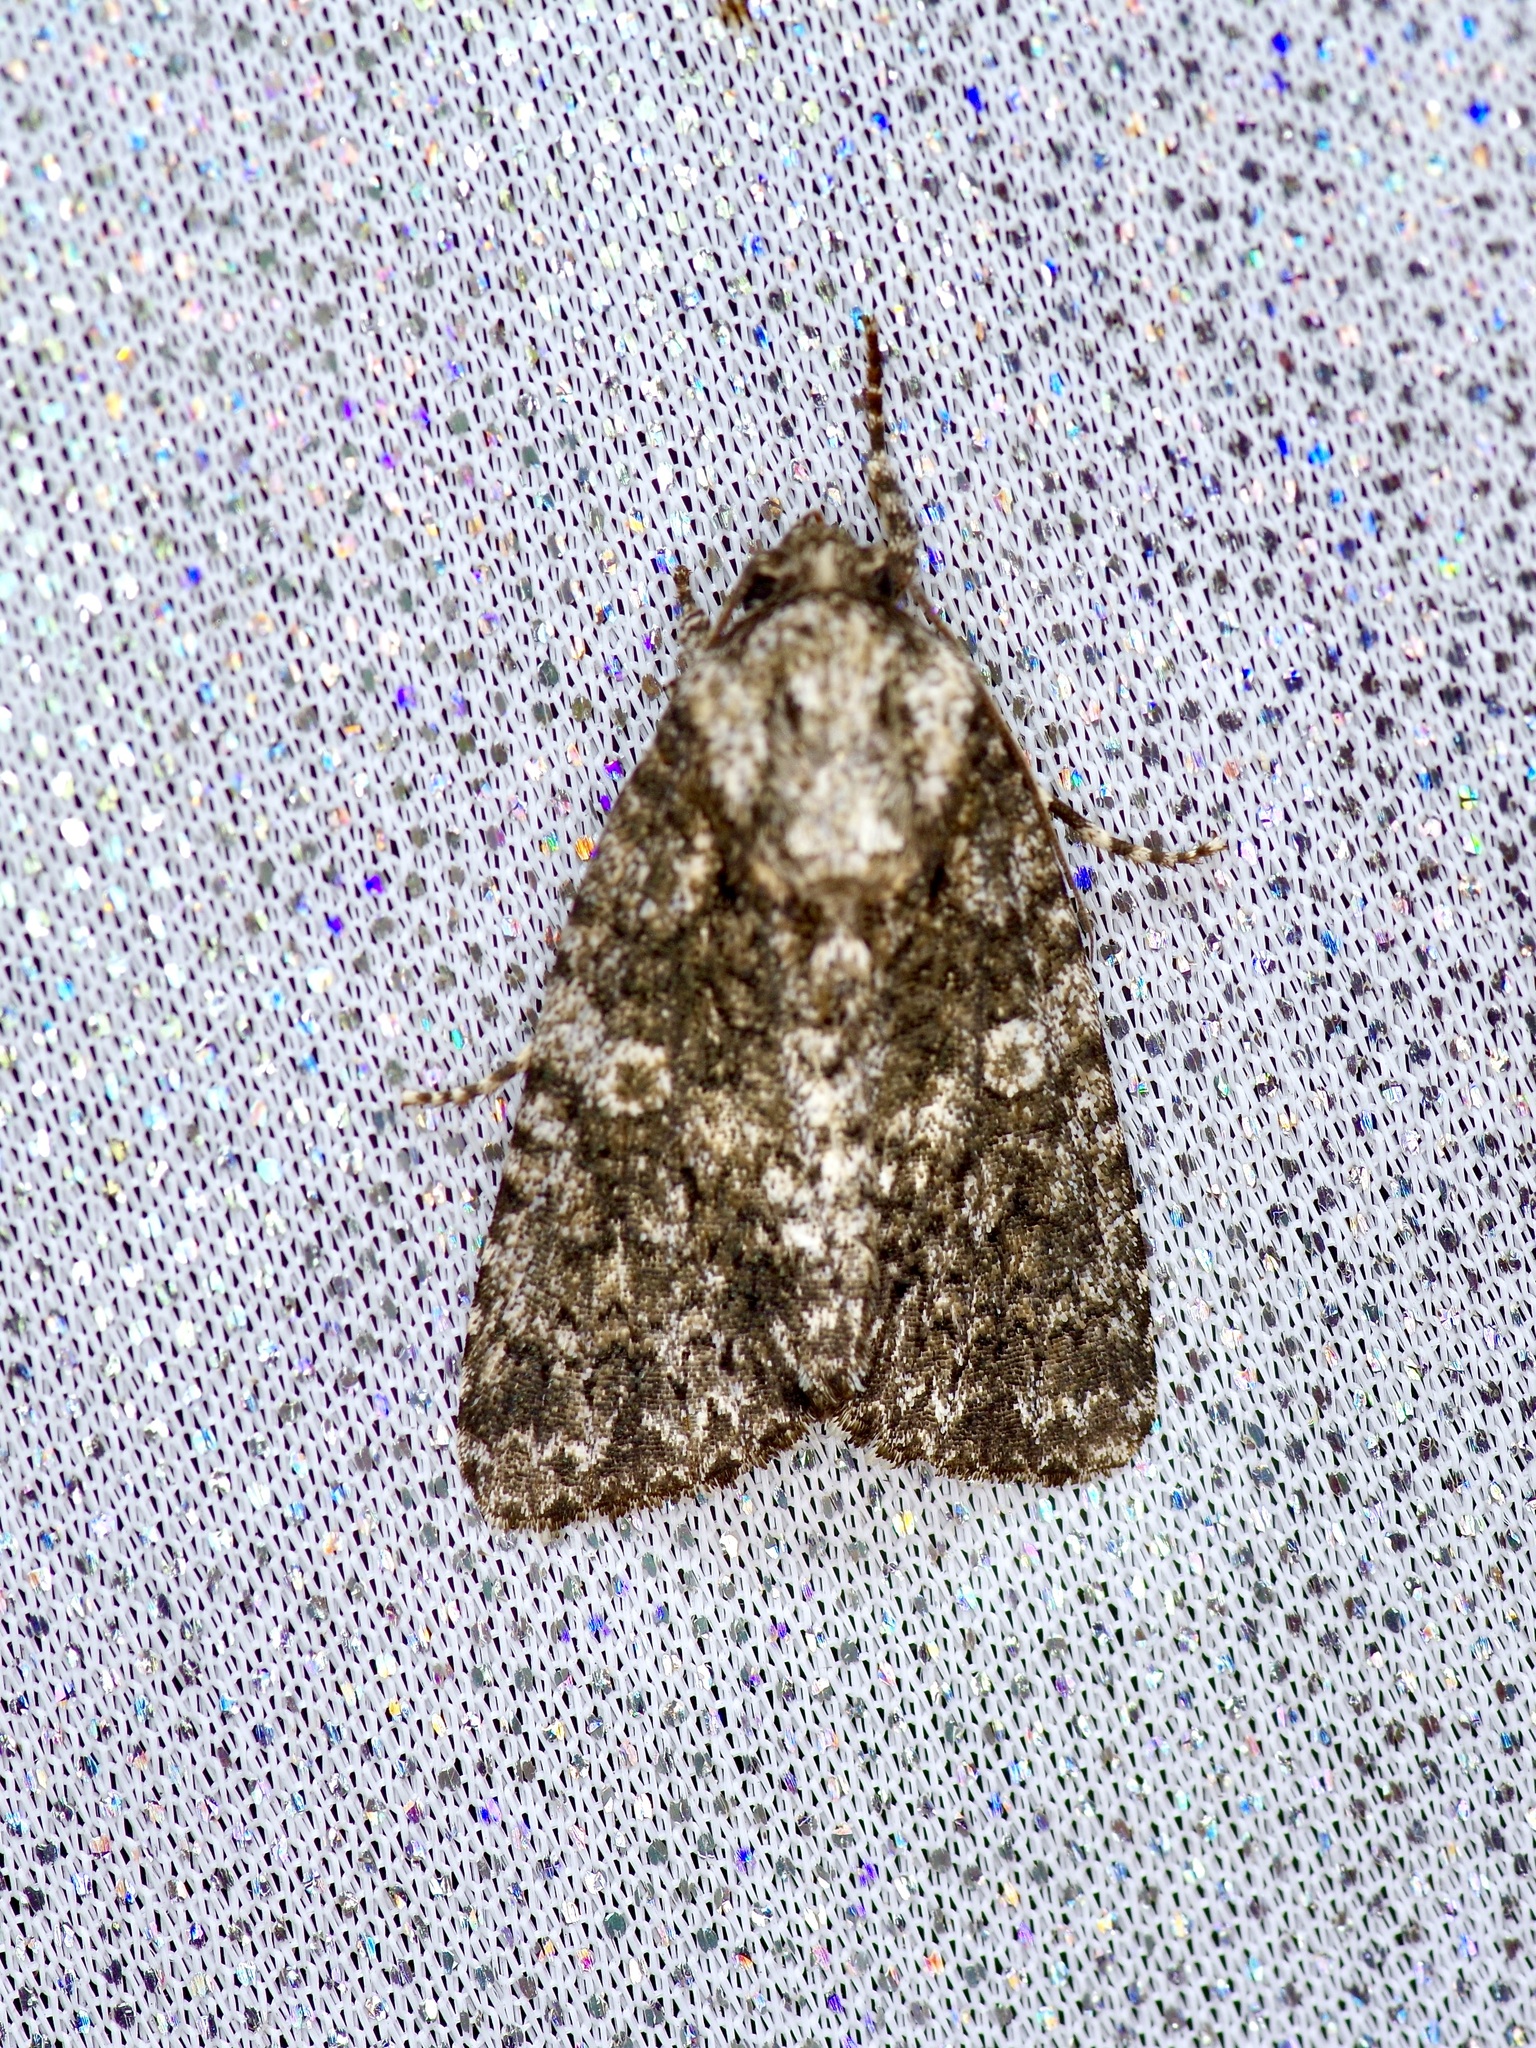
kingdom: Animalia
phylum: Arthropoda
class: Insecta
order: Lepidoptera
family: Noctuidae
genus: Acronicta
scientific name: Acronicta afflicta
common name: Afflicted dagger moth
